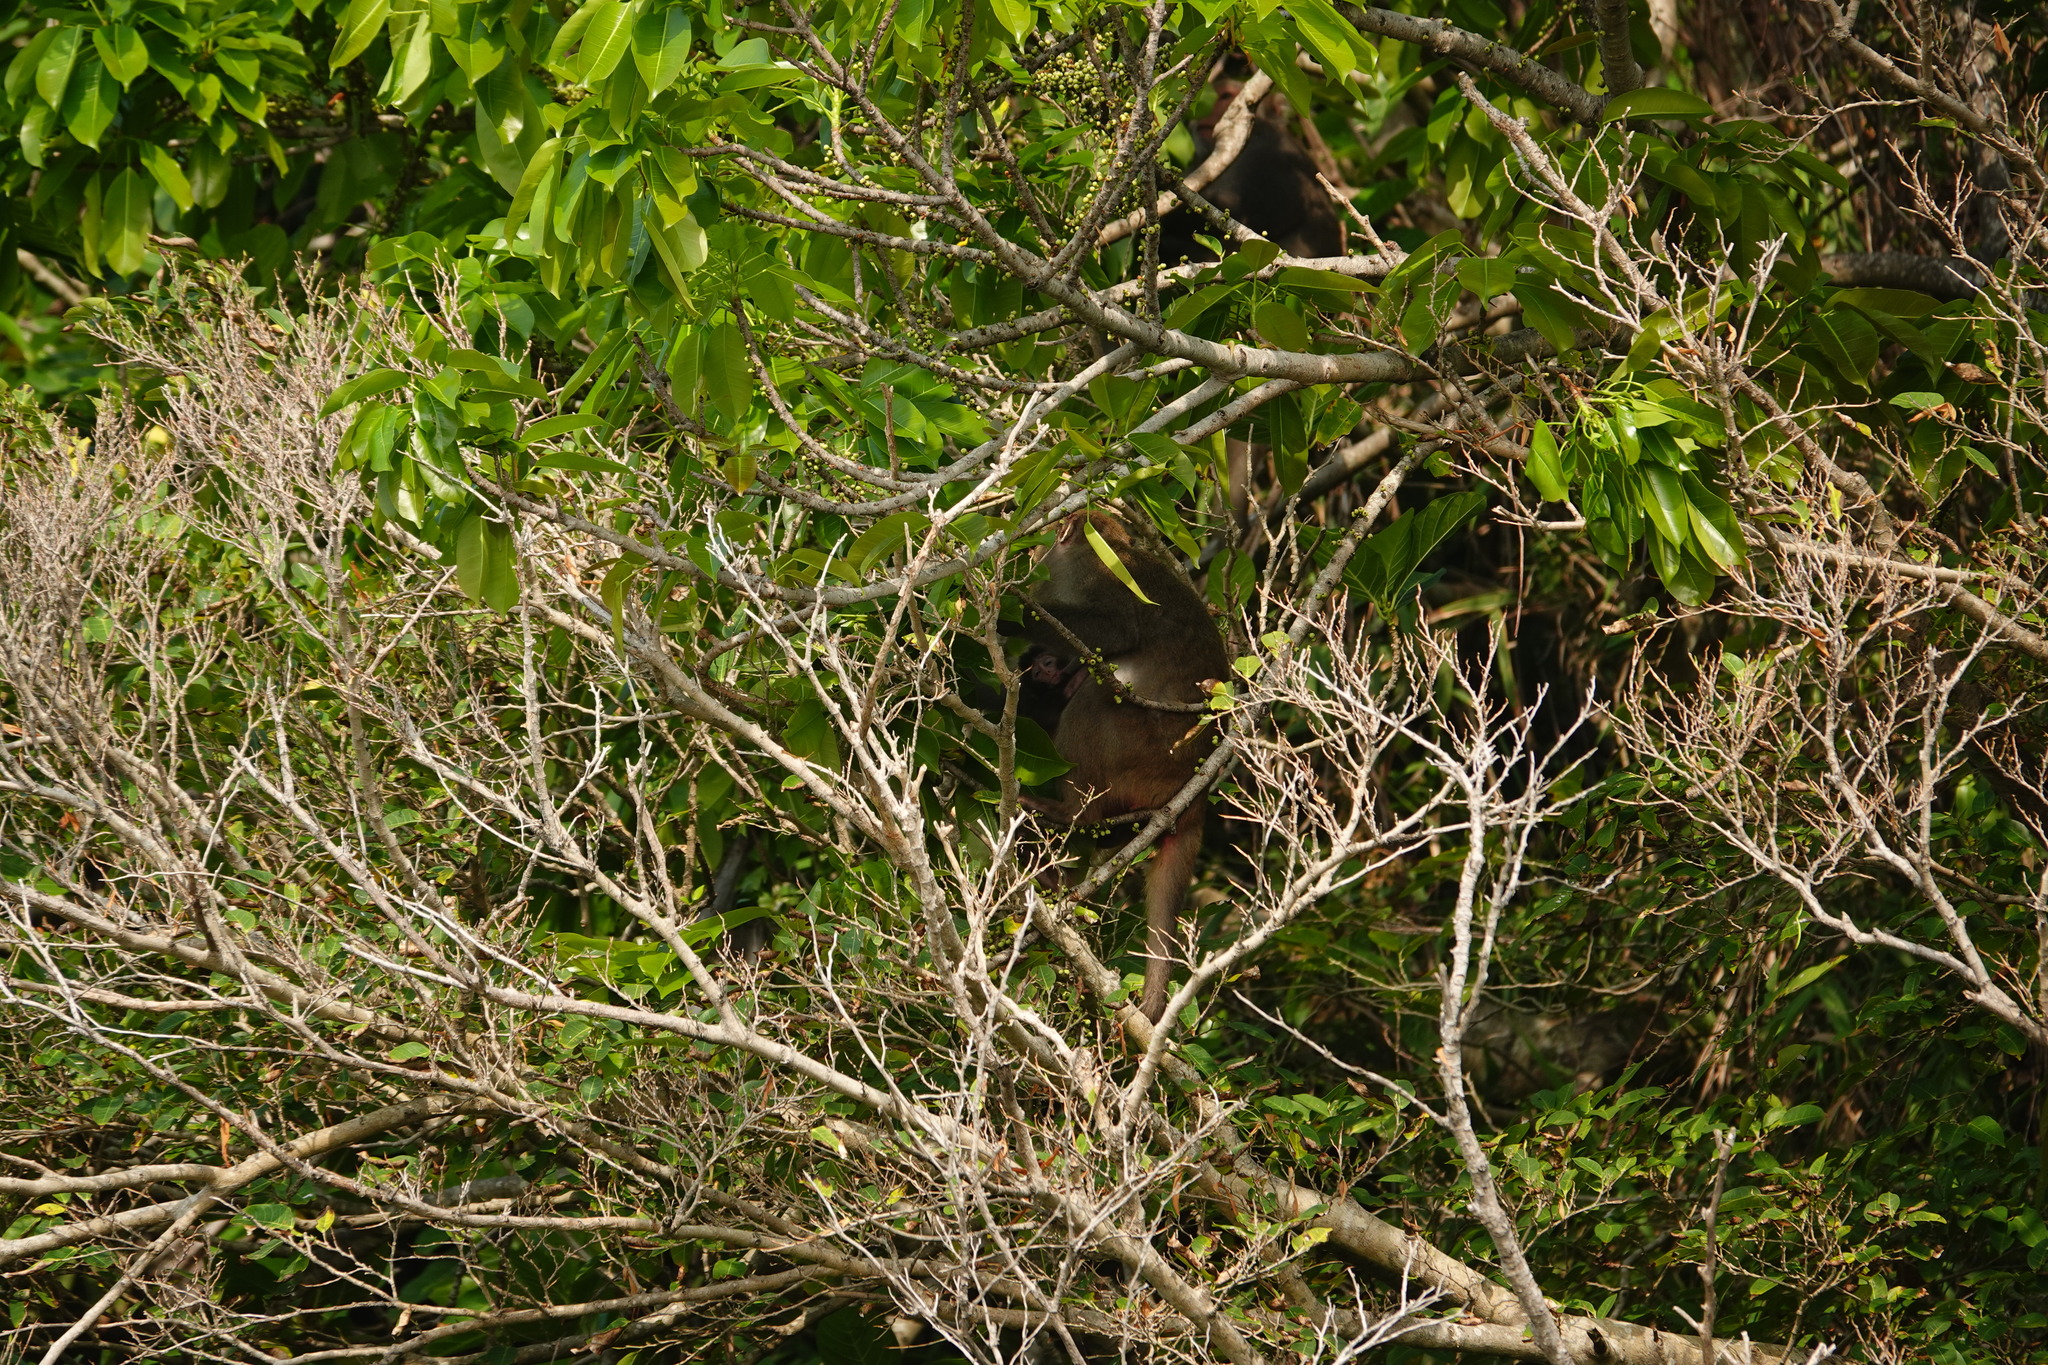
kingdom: Animalia
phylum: Chordata
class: Mammalia
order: Primates
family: Cercopithecidae
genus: Macaca
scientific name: Macaca cyclopis
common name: Formosan rock macaque
